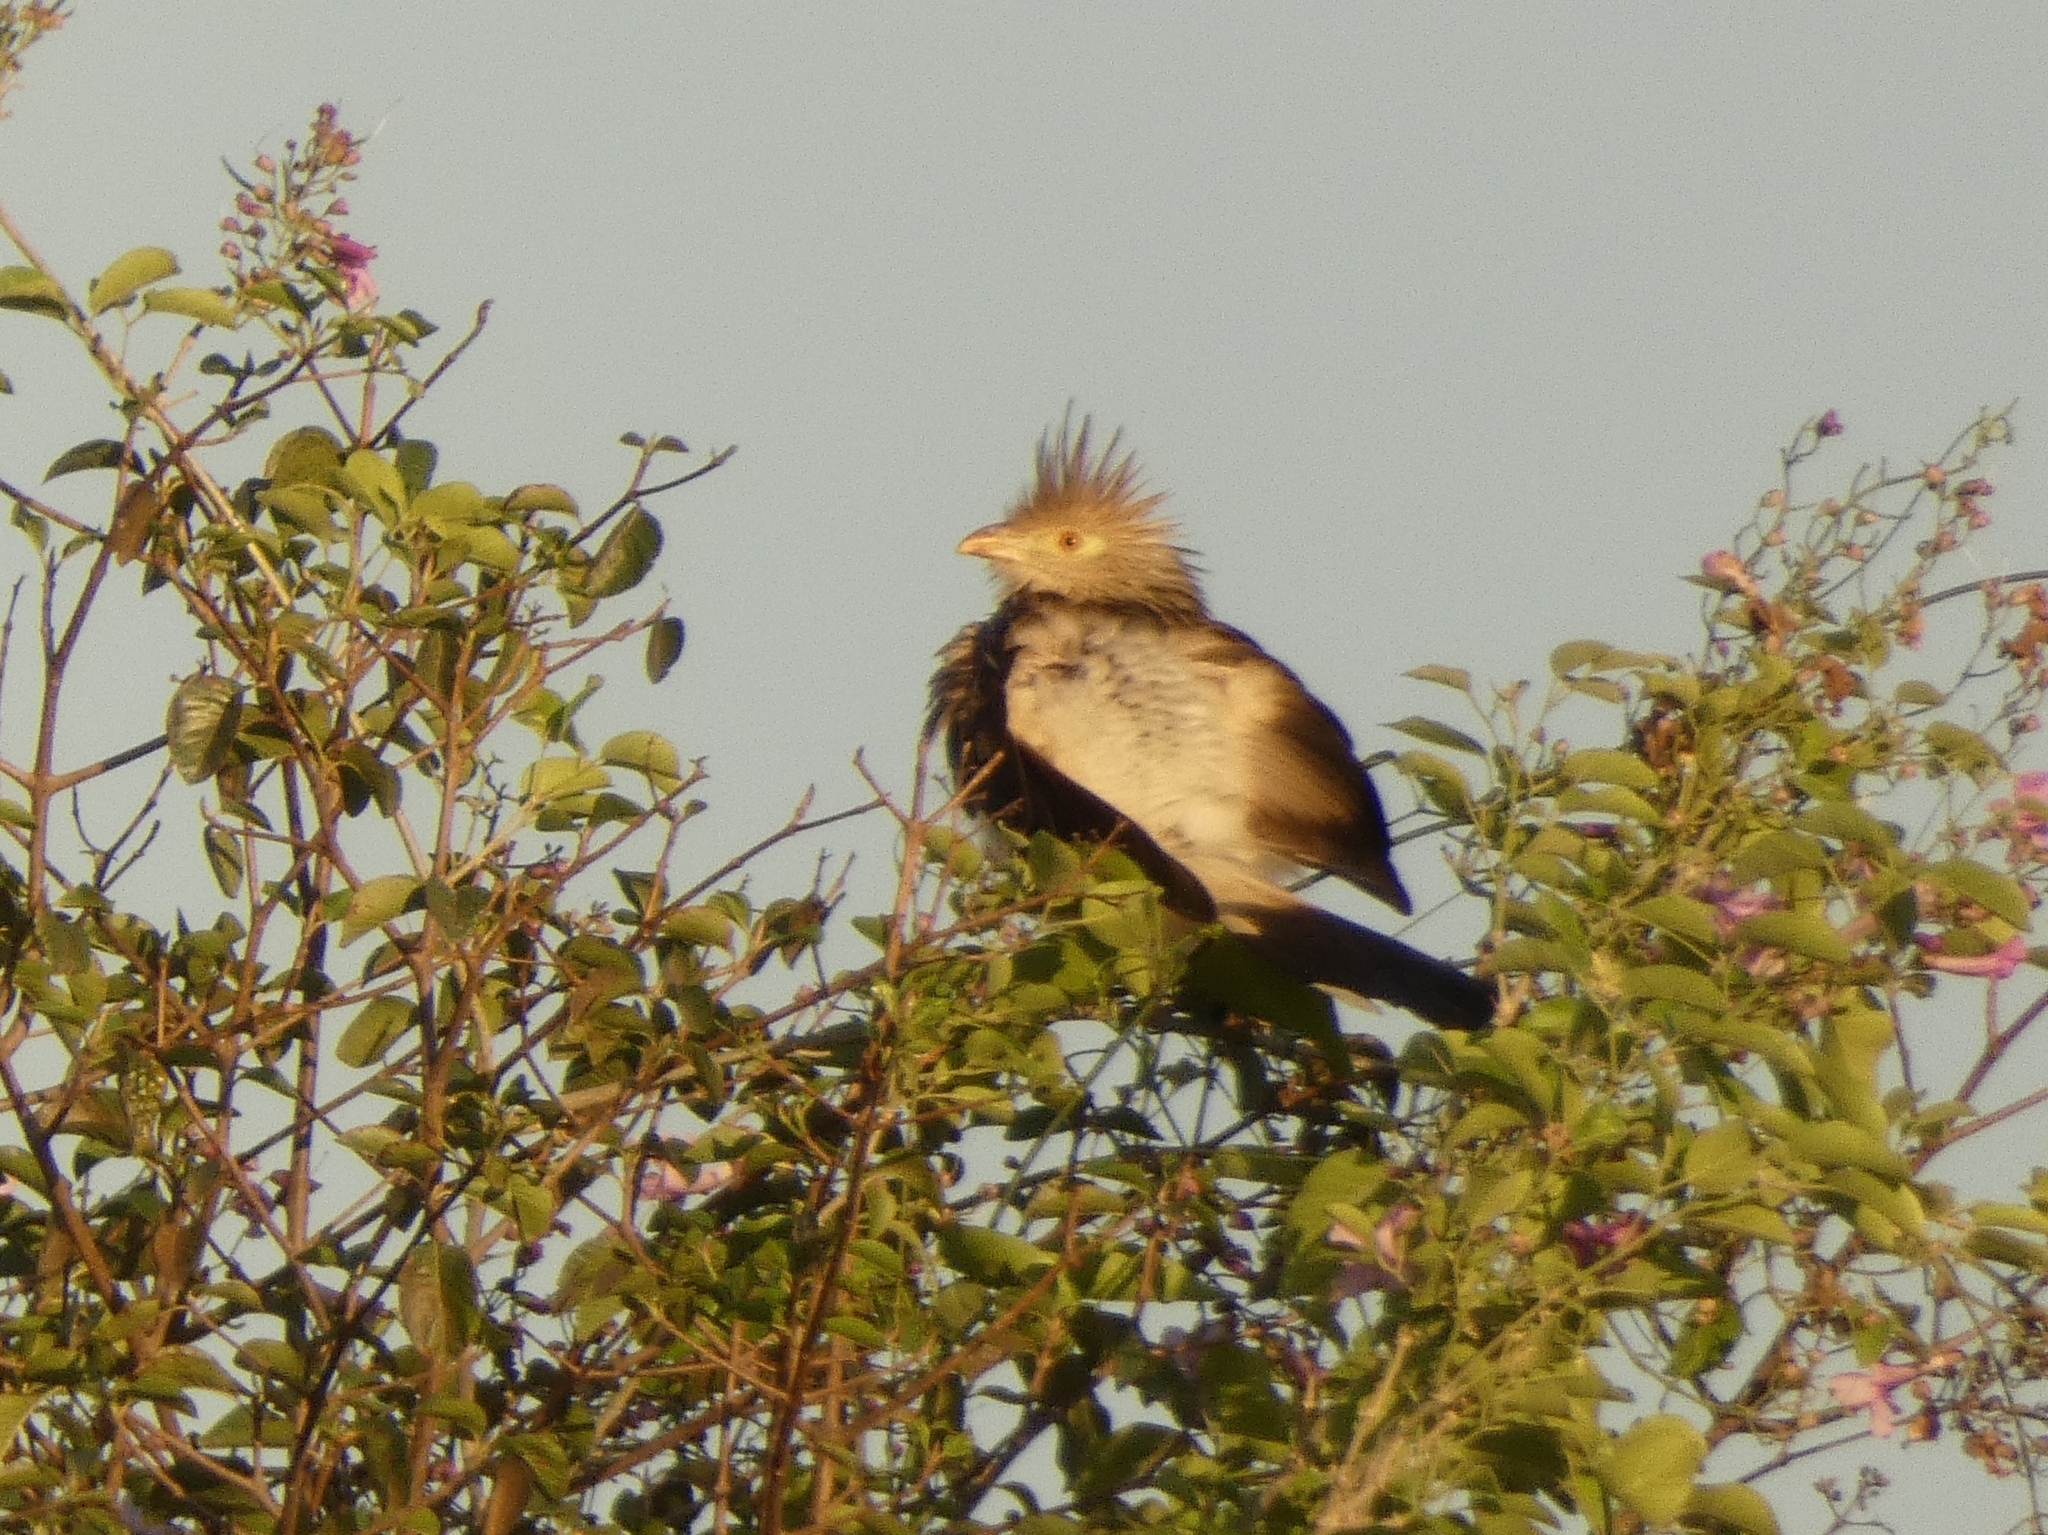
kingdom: Animalia
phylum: Chordata
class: Aves
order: Cuculiformes
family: Cuculidae
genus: Guira
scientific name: Guira guira
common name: Guira cuckoo
